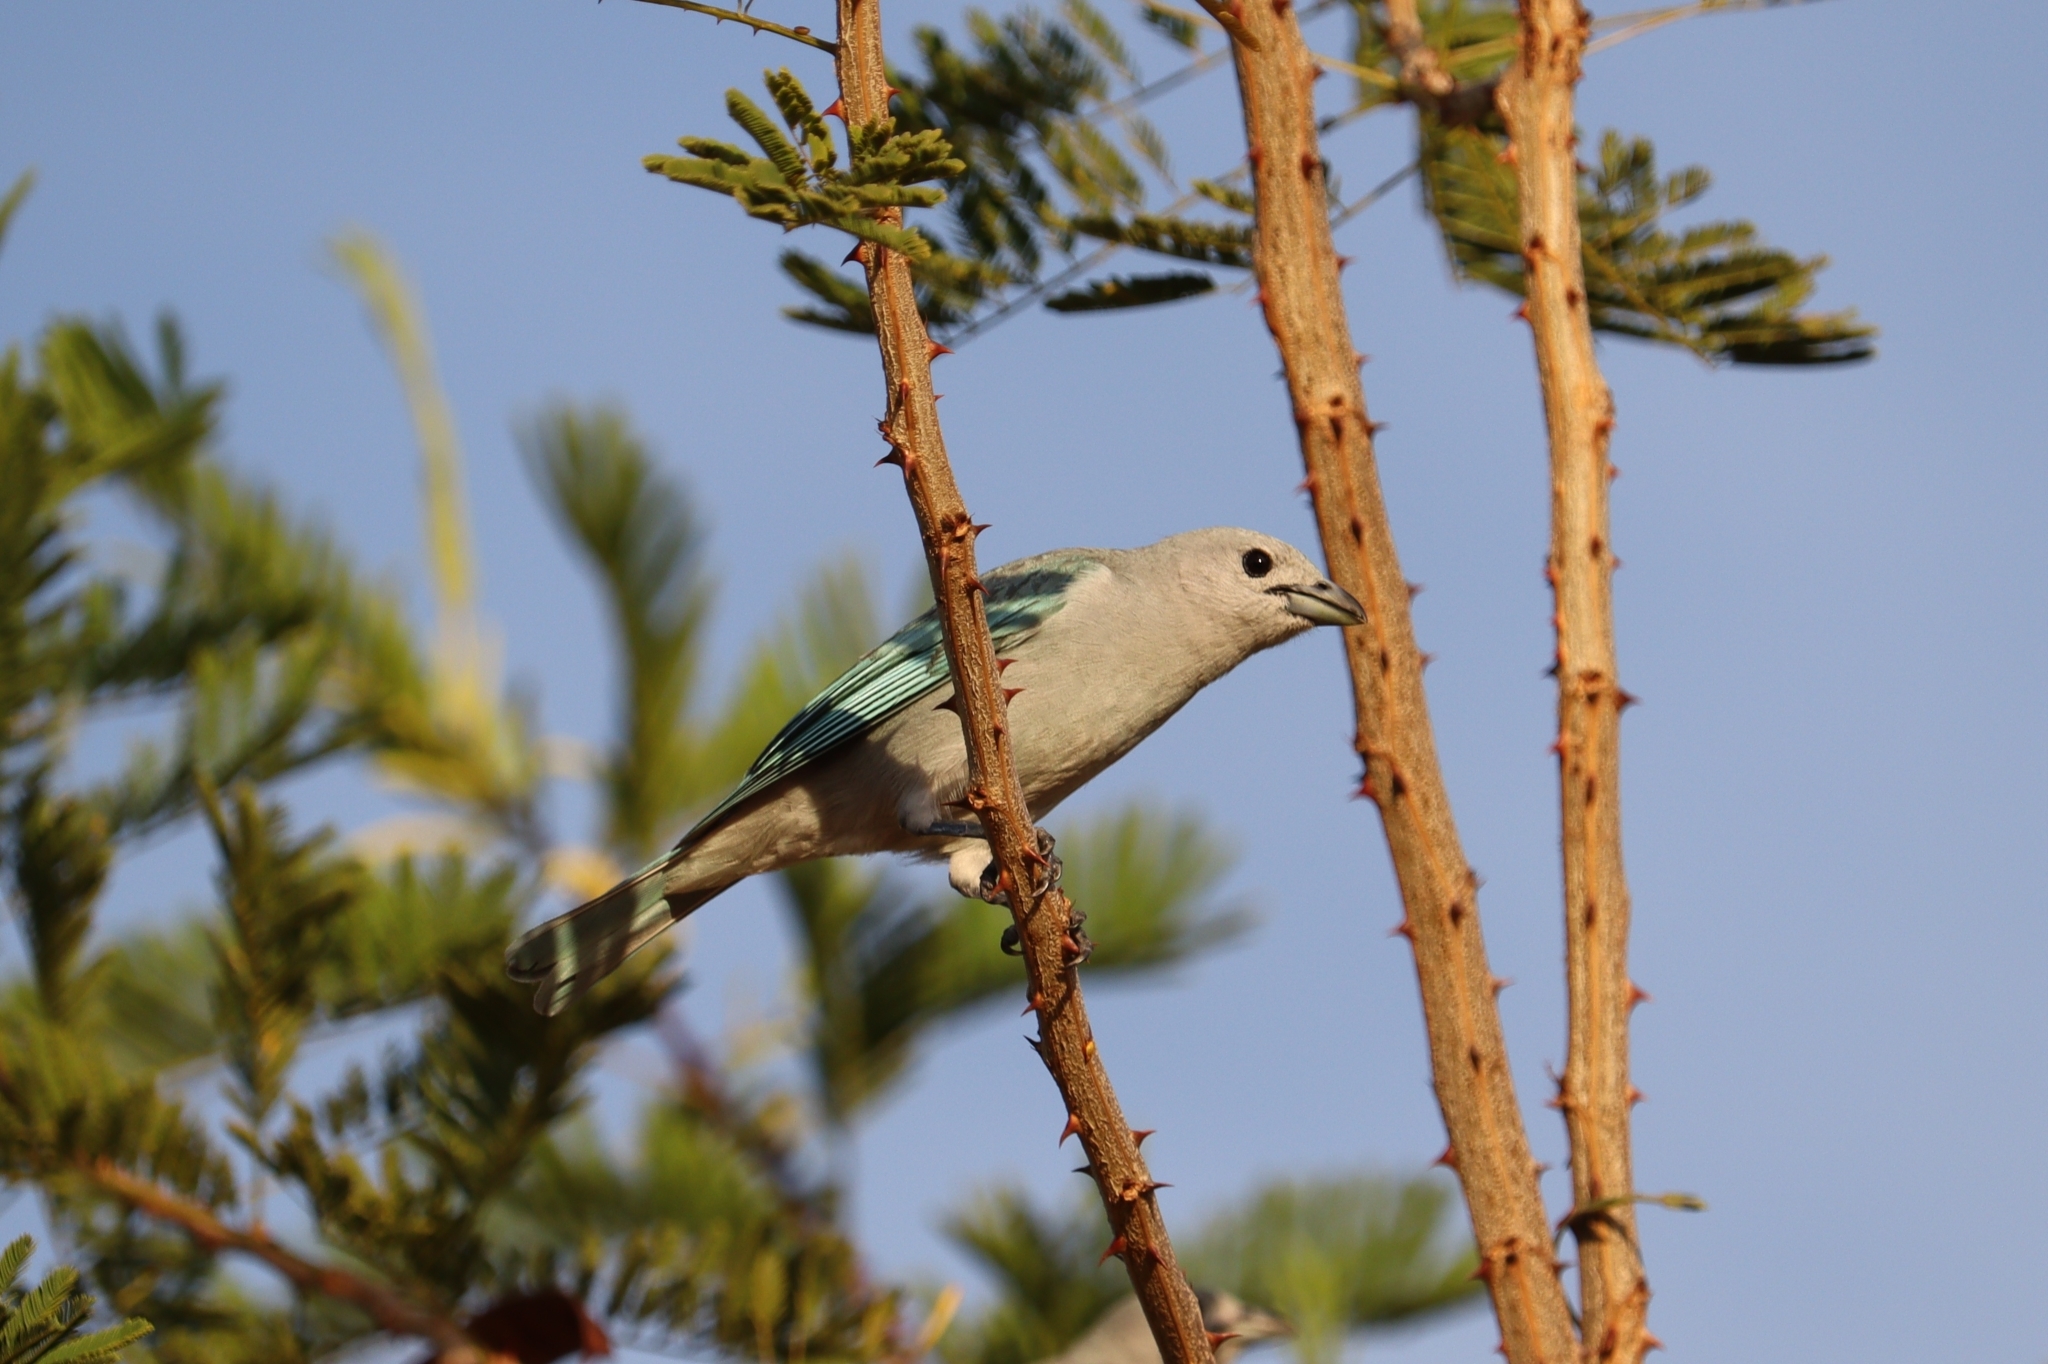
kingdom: Animalia
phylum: Chordata
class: Aves
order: Passeriformes
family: Thraupidae
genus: Thraupis
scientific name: Thraupis sayaca
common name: Sayaca tanager
